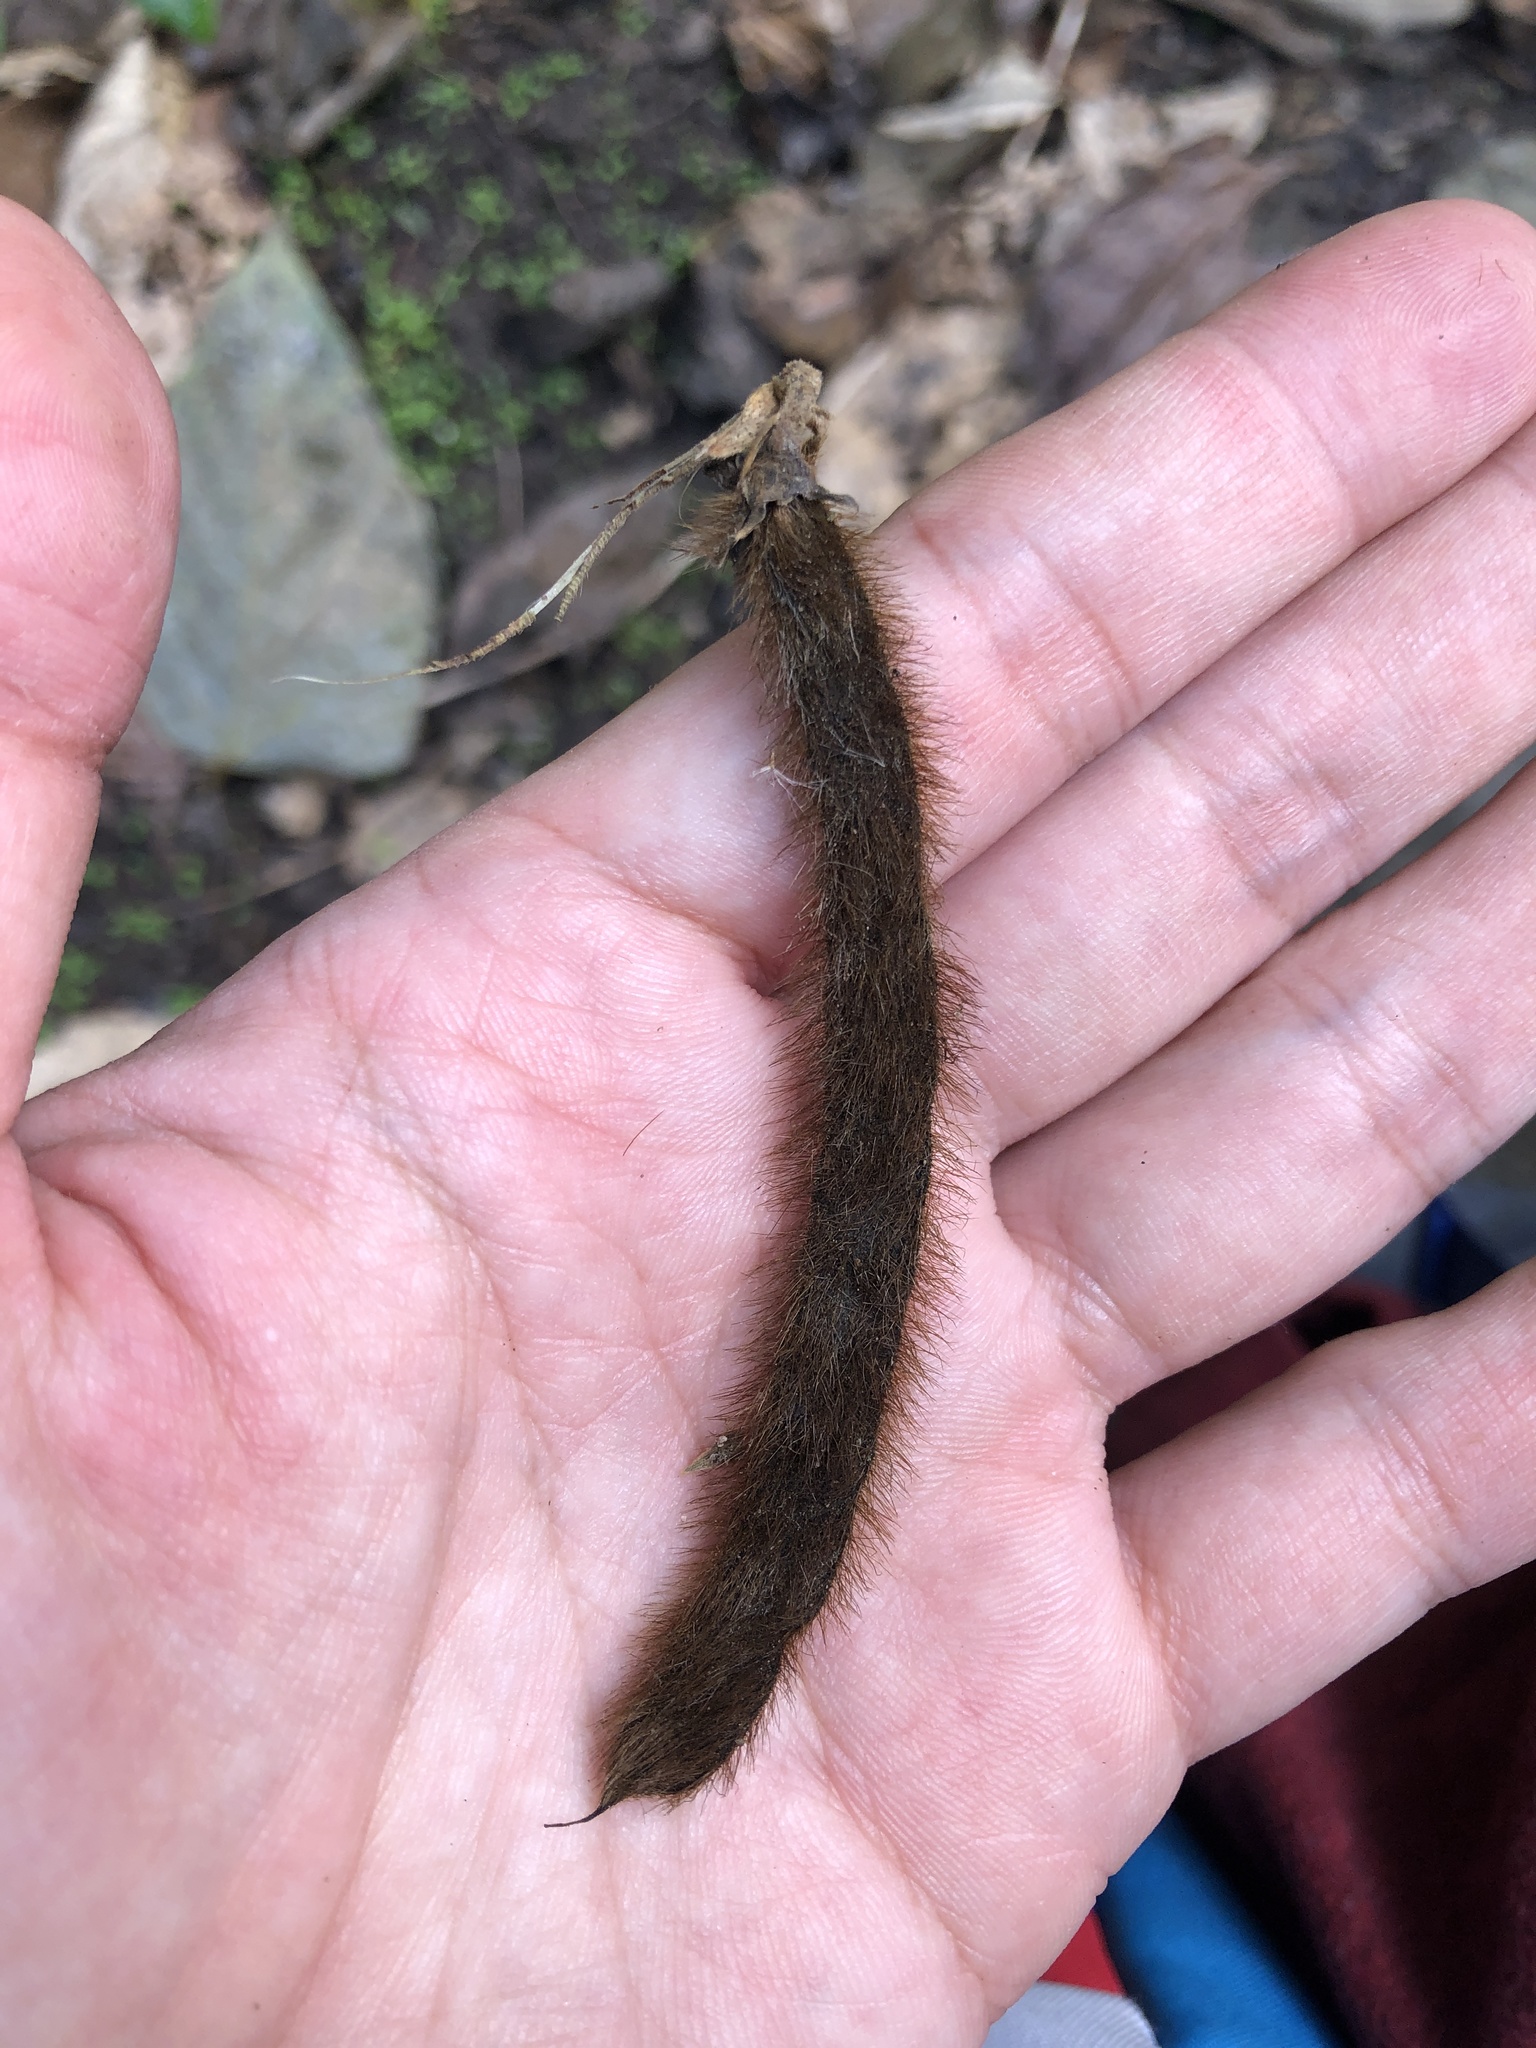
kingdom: Plantae
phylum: Tracheophyta
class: Magnoliopsida
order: Fabales
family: Fabaceae
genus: Pueraria
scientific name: Pueraria montana
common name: Kudzu
